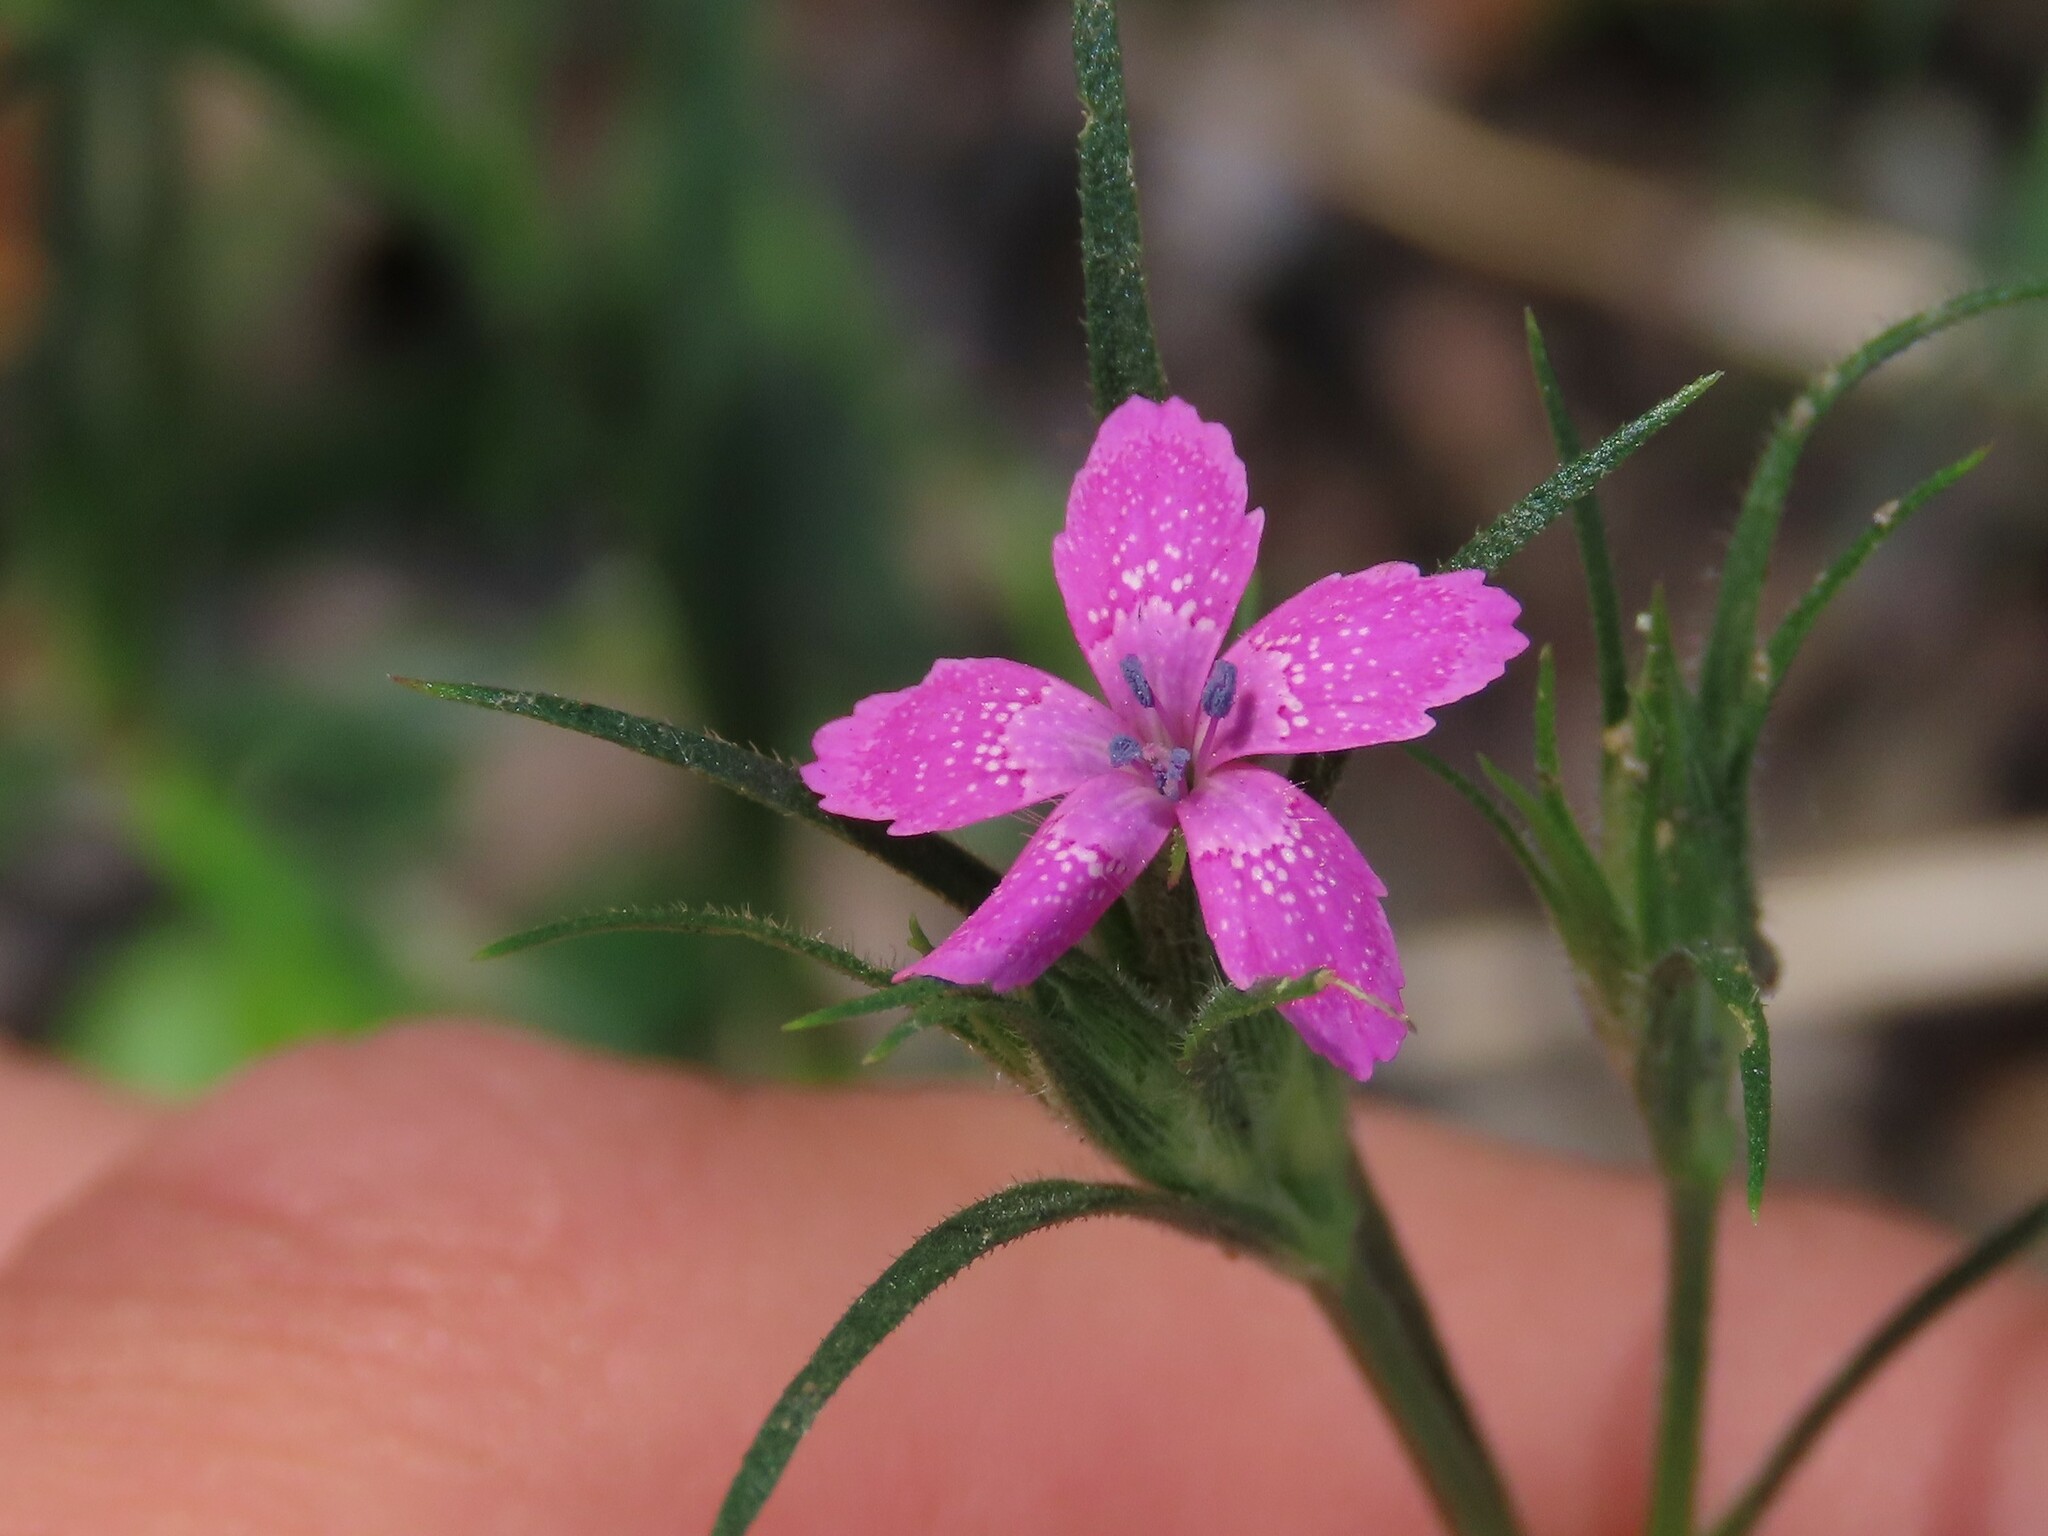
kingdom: Plantae
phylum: Tracheophyta
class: Magnoliopsida
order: Caryophyllales
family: Caryophyllaceae
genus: Dianthus
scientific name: Dianthus armeria
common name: Deptford pink
